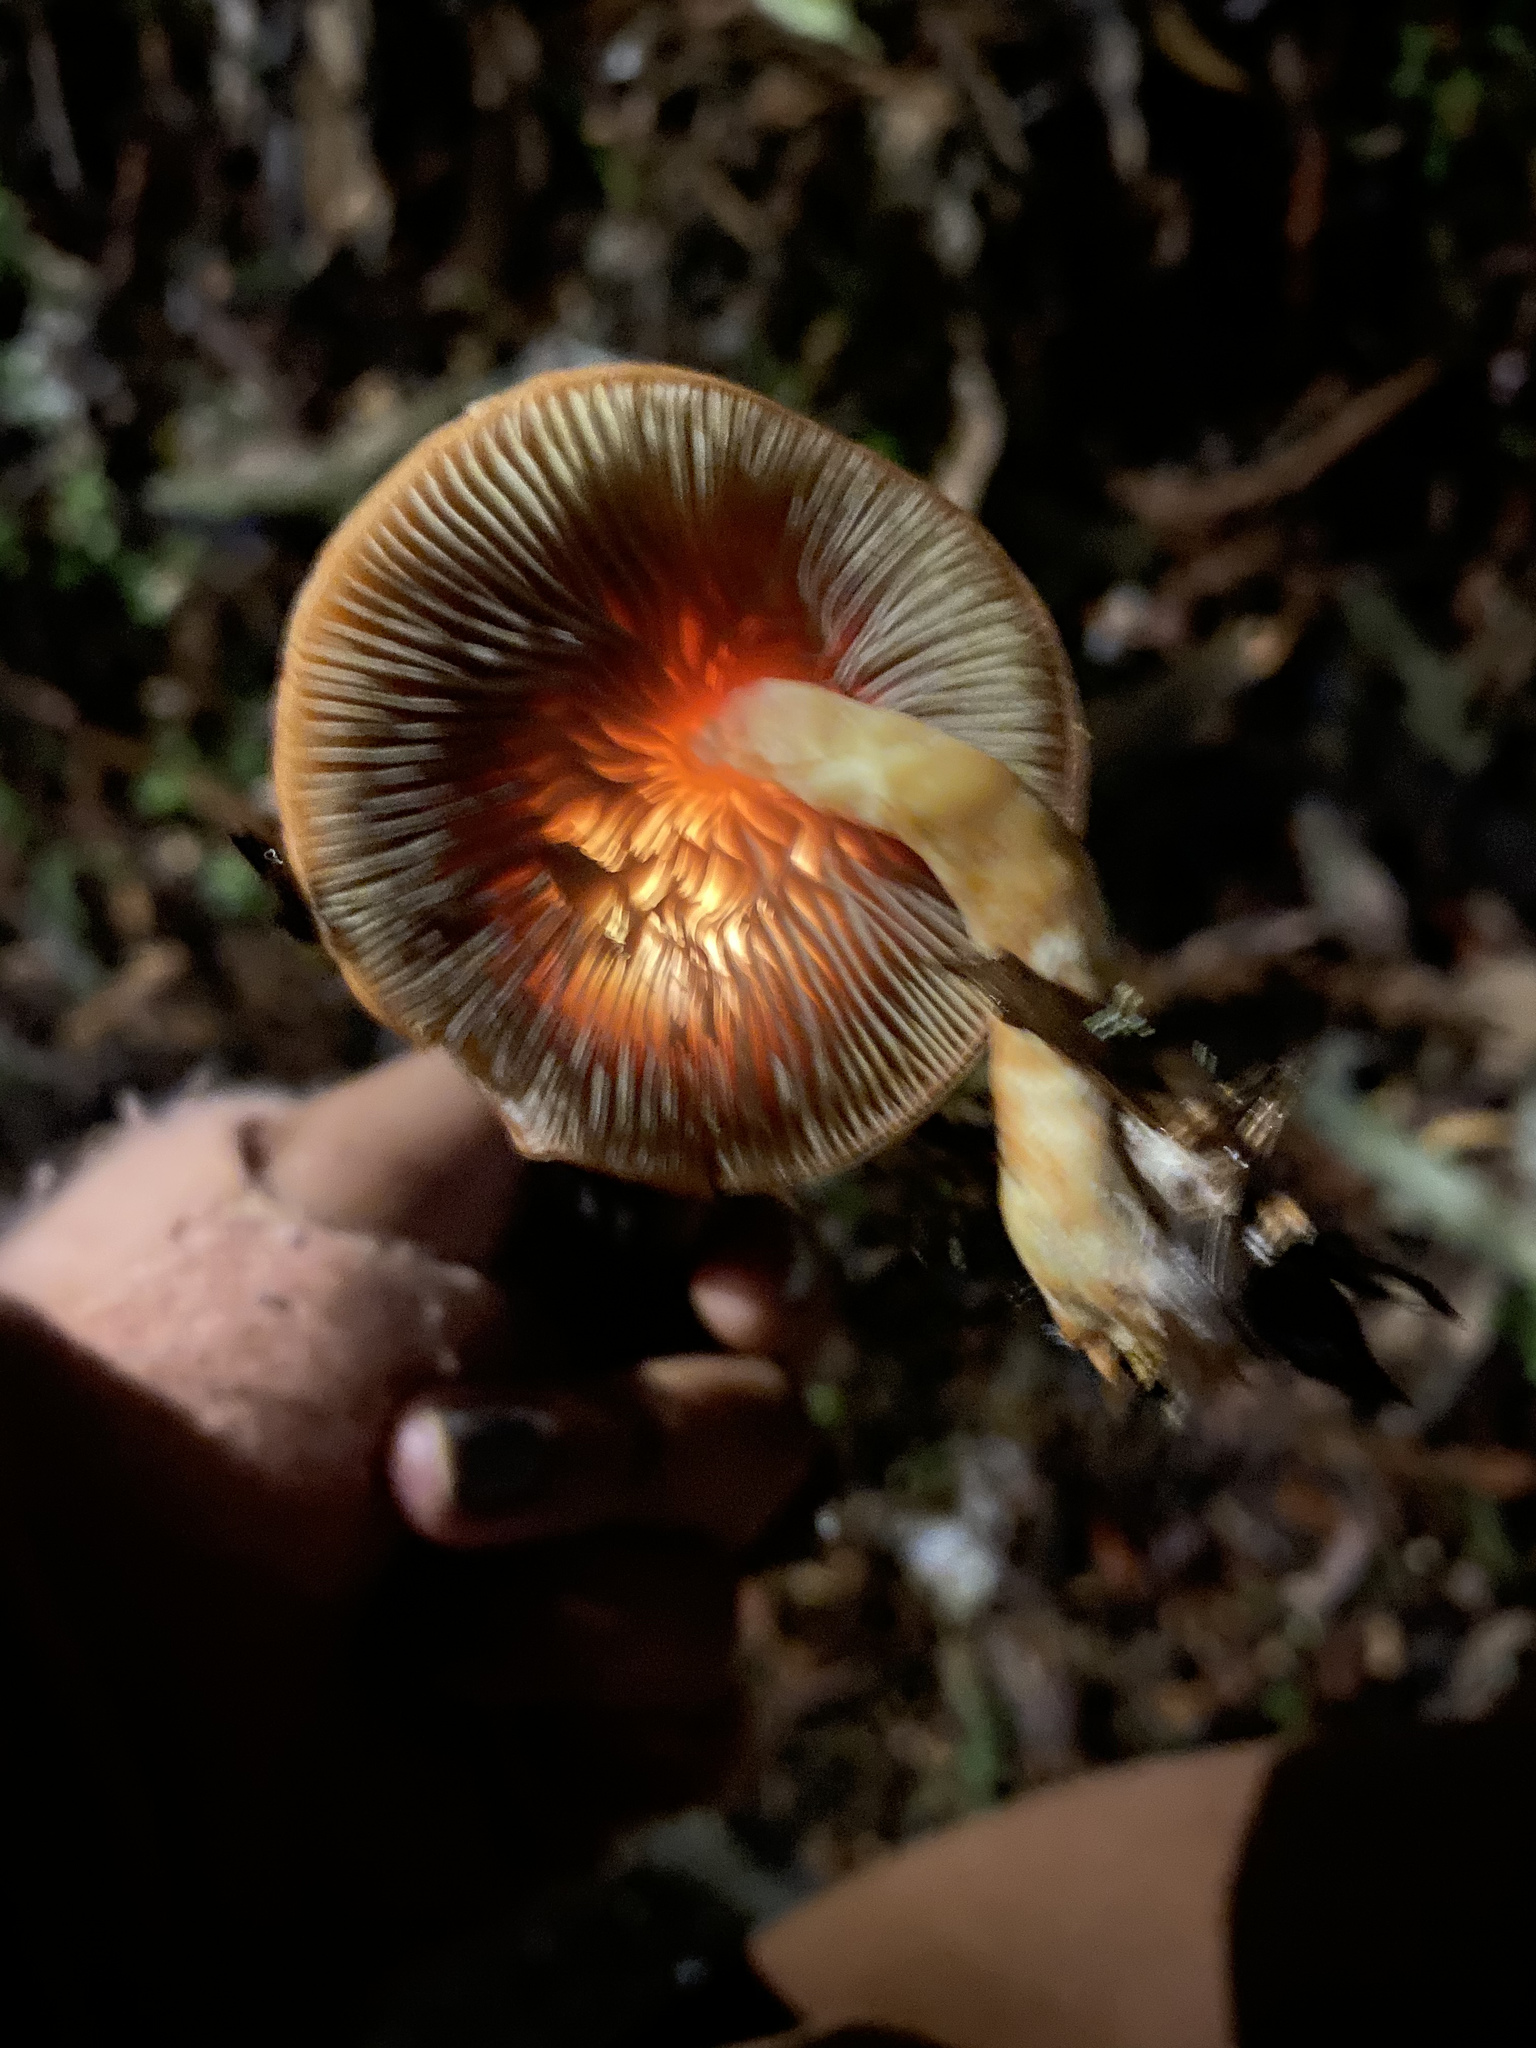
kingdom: Fungi
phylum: Basidiomycota
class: Agaricomycetes
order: Agaricales
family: Strophariaceae
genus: Leratiomyces
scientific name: Leratiomyces ceres
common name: Redlead roundhead
